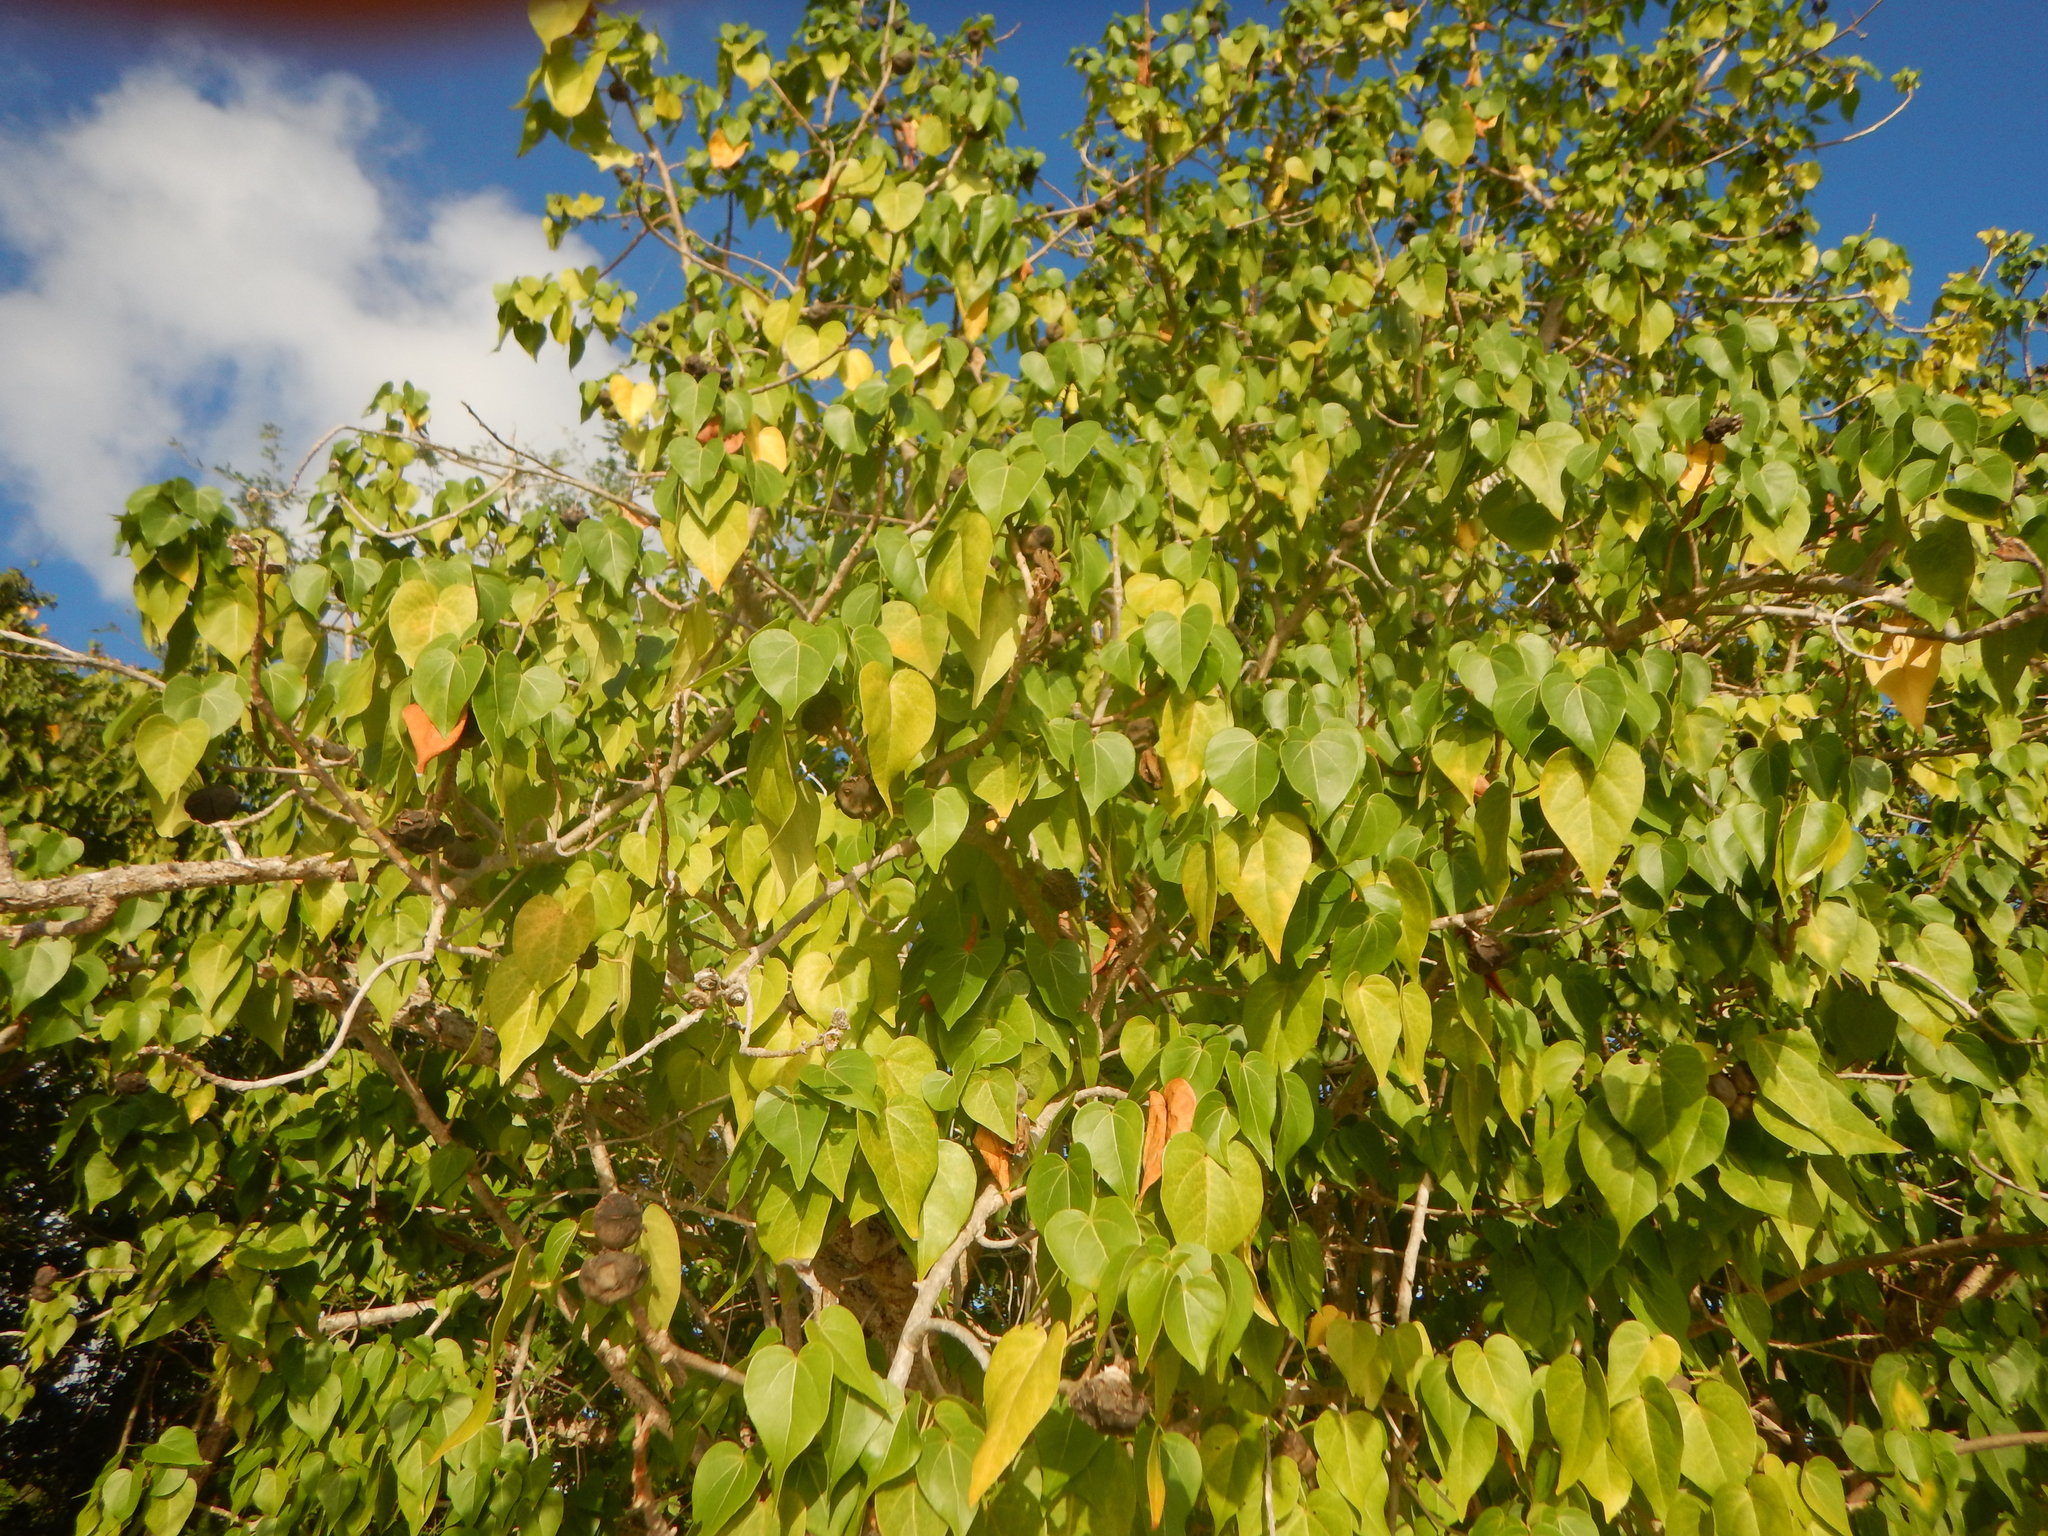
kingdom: Plantae
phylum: Tracheophyta
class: Magnoliopsida
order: Malvales
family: Malvaceae
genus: Thespesia
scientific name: Thespesia populnea
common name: Seaside mahoe
